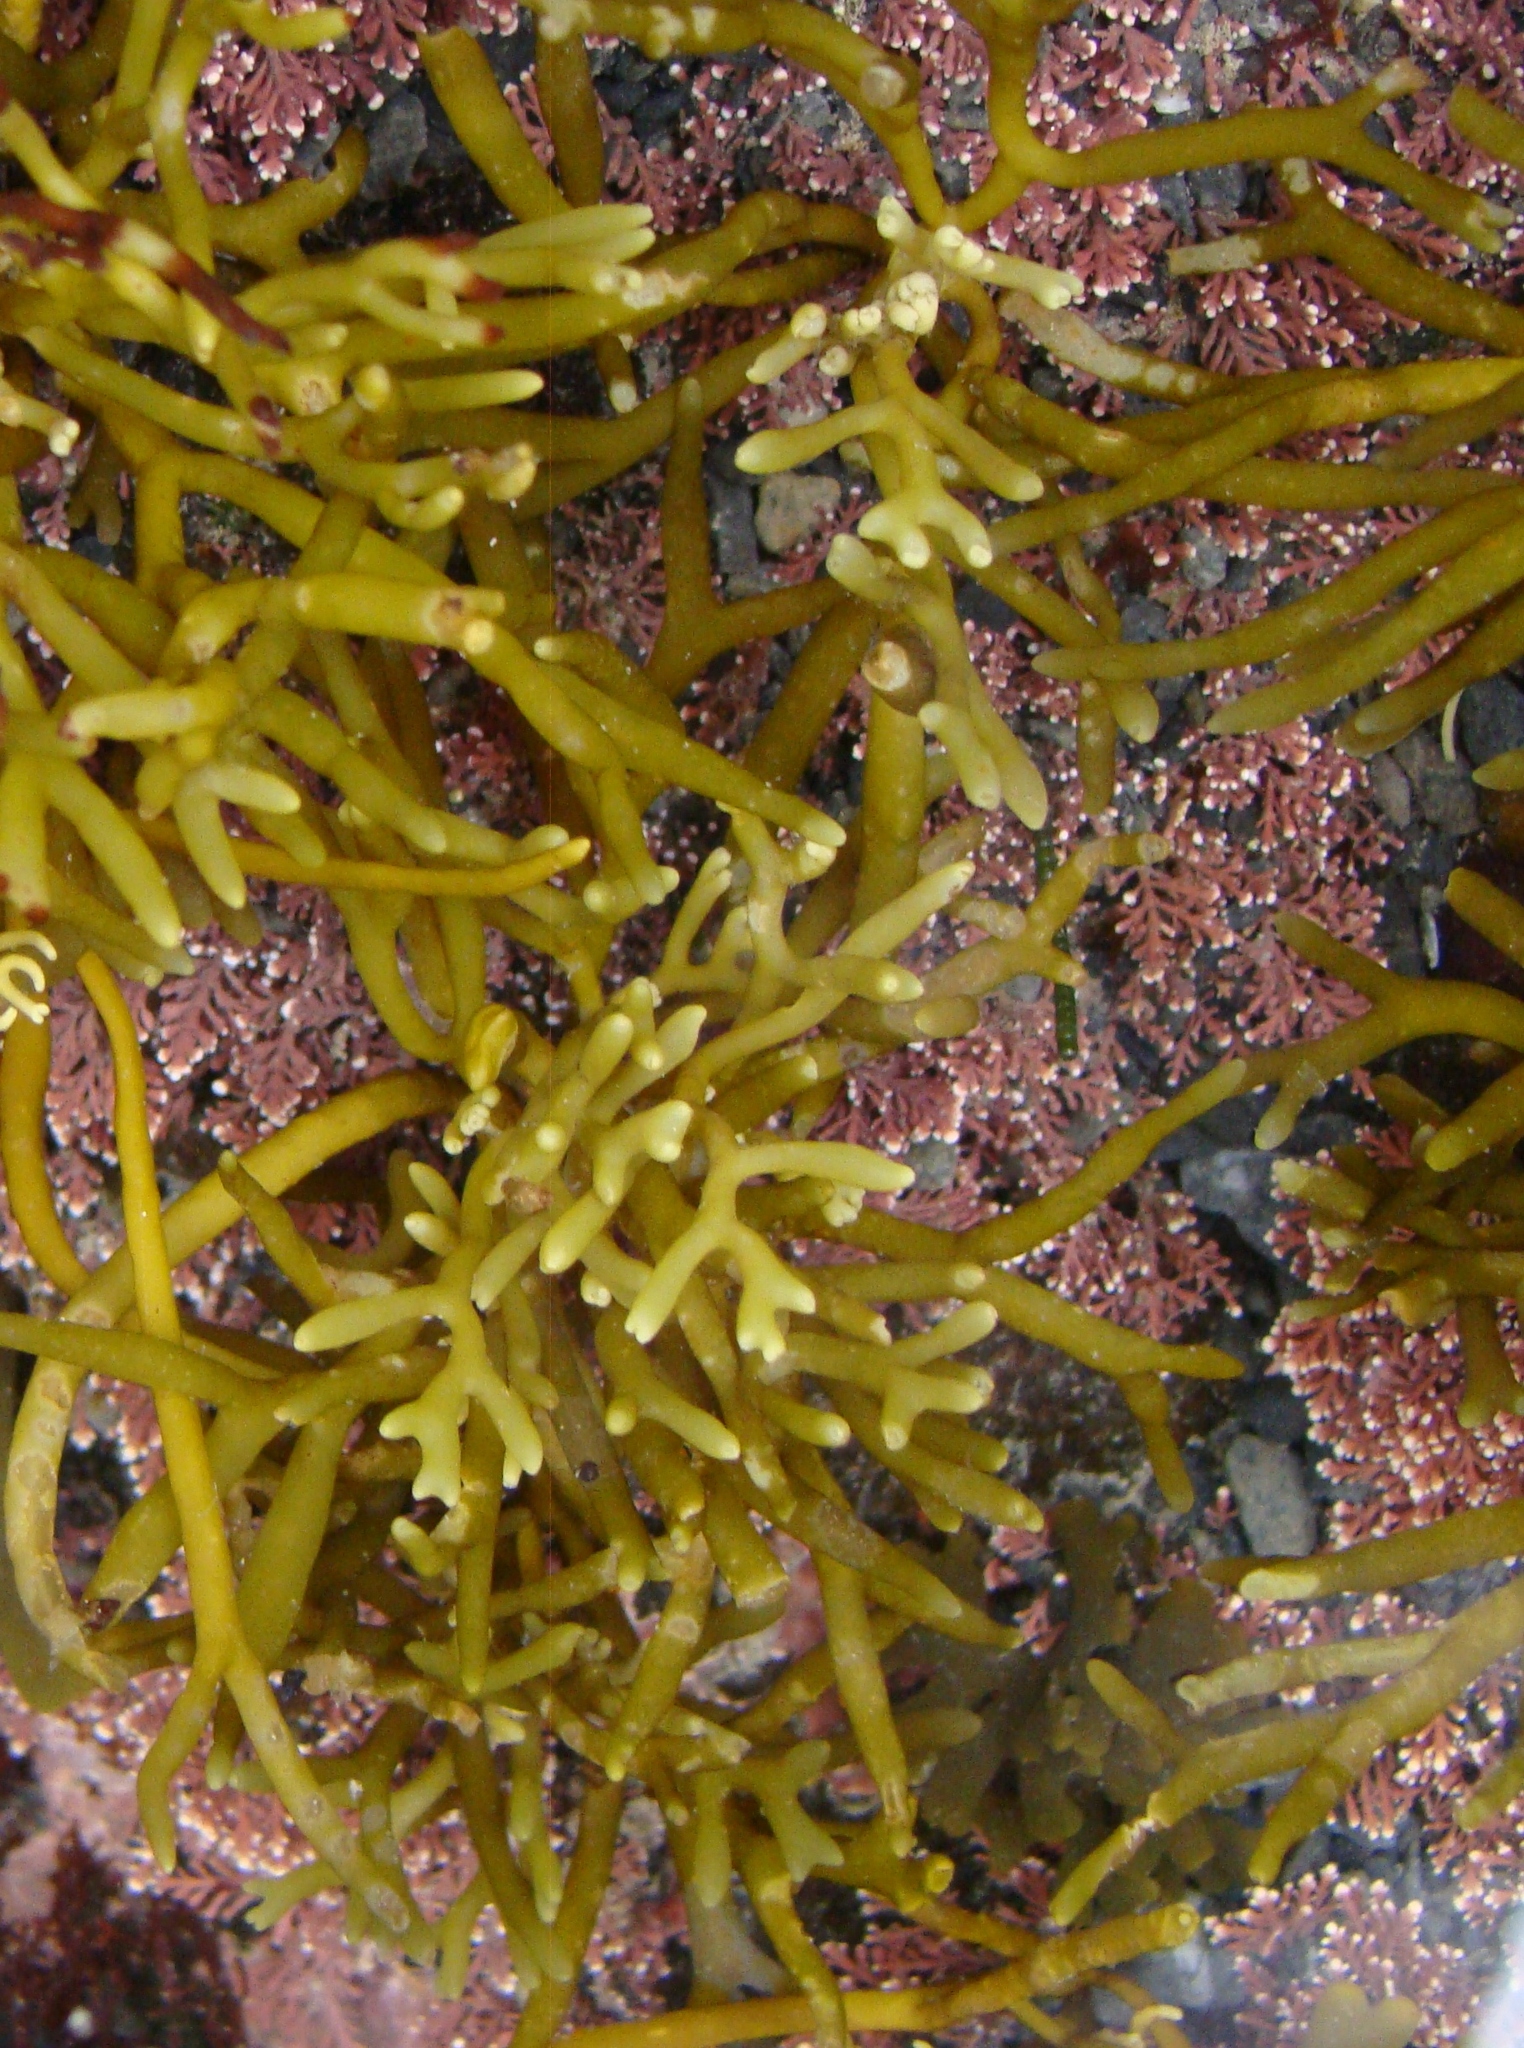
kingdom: Plantae
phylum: Chlorophyta
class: Ulvophyceae
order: Bryopsidales
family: Codiaceae
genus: Codium
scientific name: Codium fragile
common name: Dead man's fingers
